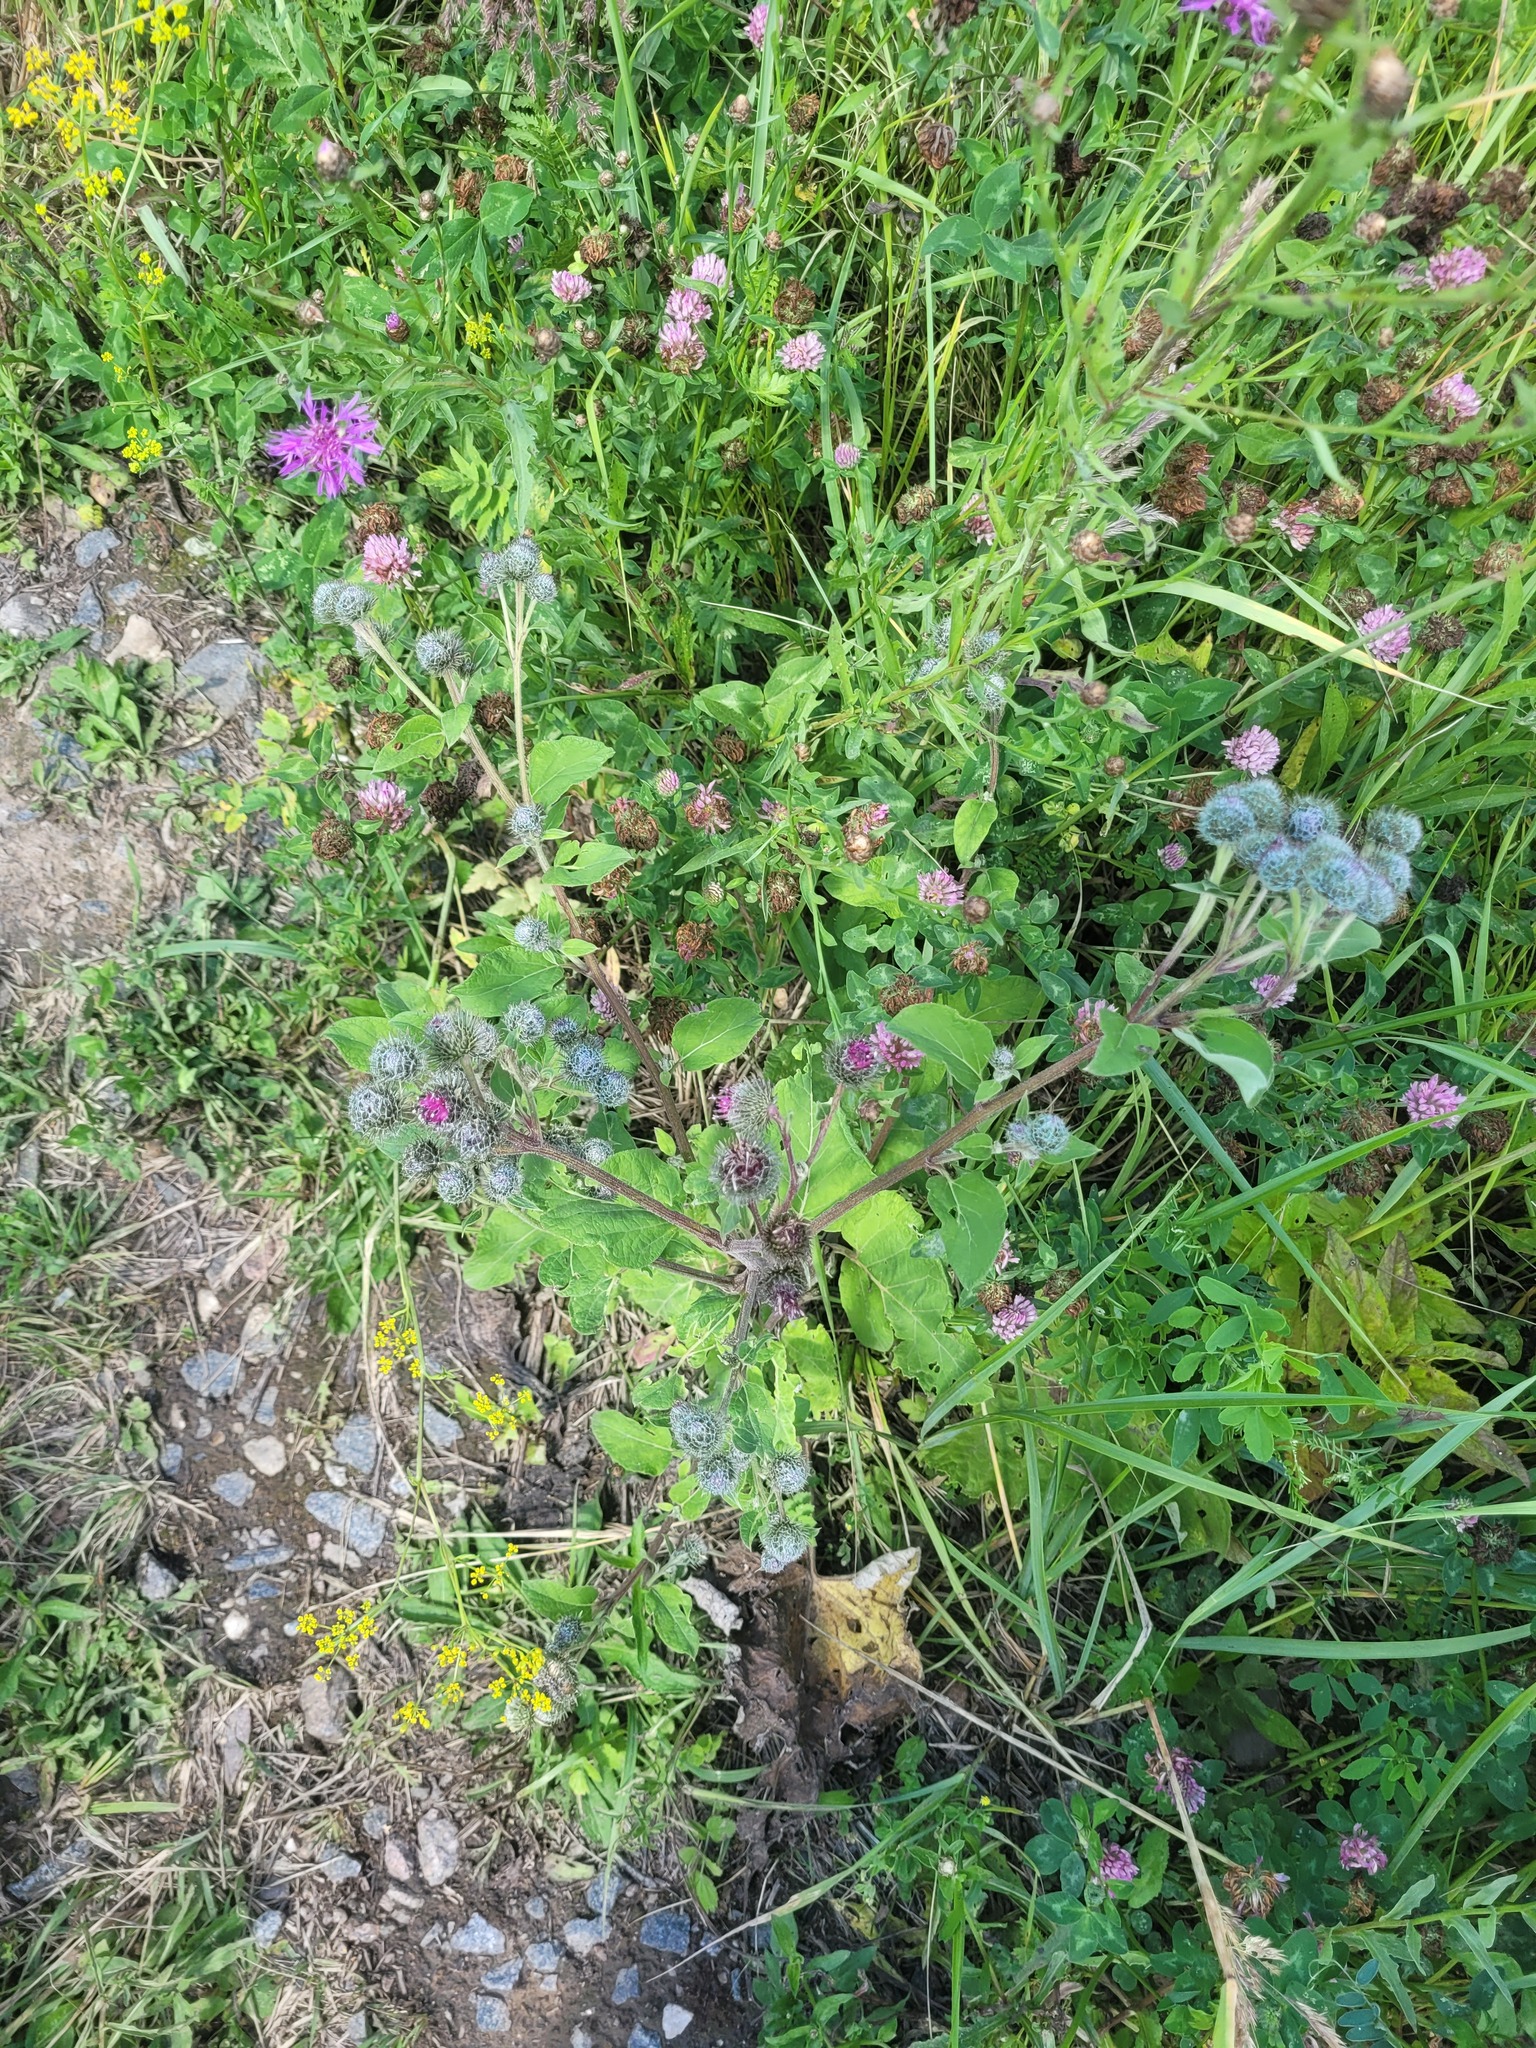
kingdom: Plantae
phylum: Tracheophyta
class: Magnoliopsida
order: Asterales
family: Asteraceae
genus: Arctium
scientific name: Arctium tomentosum
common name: Woolly burdock
